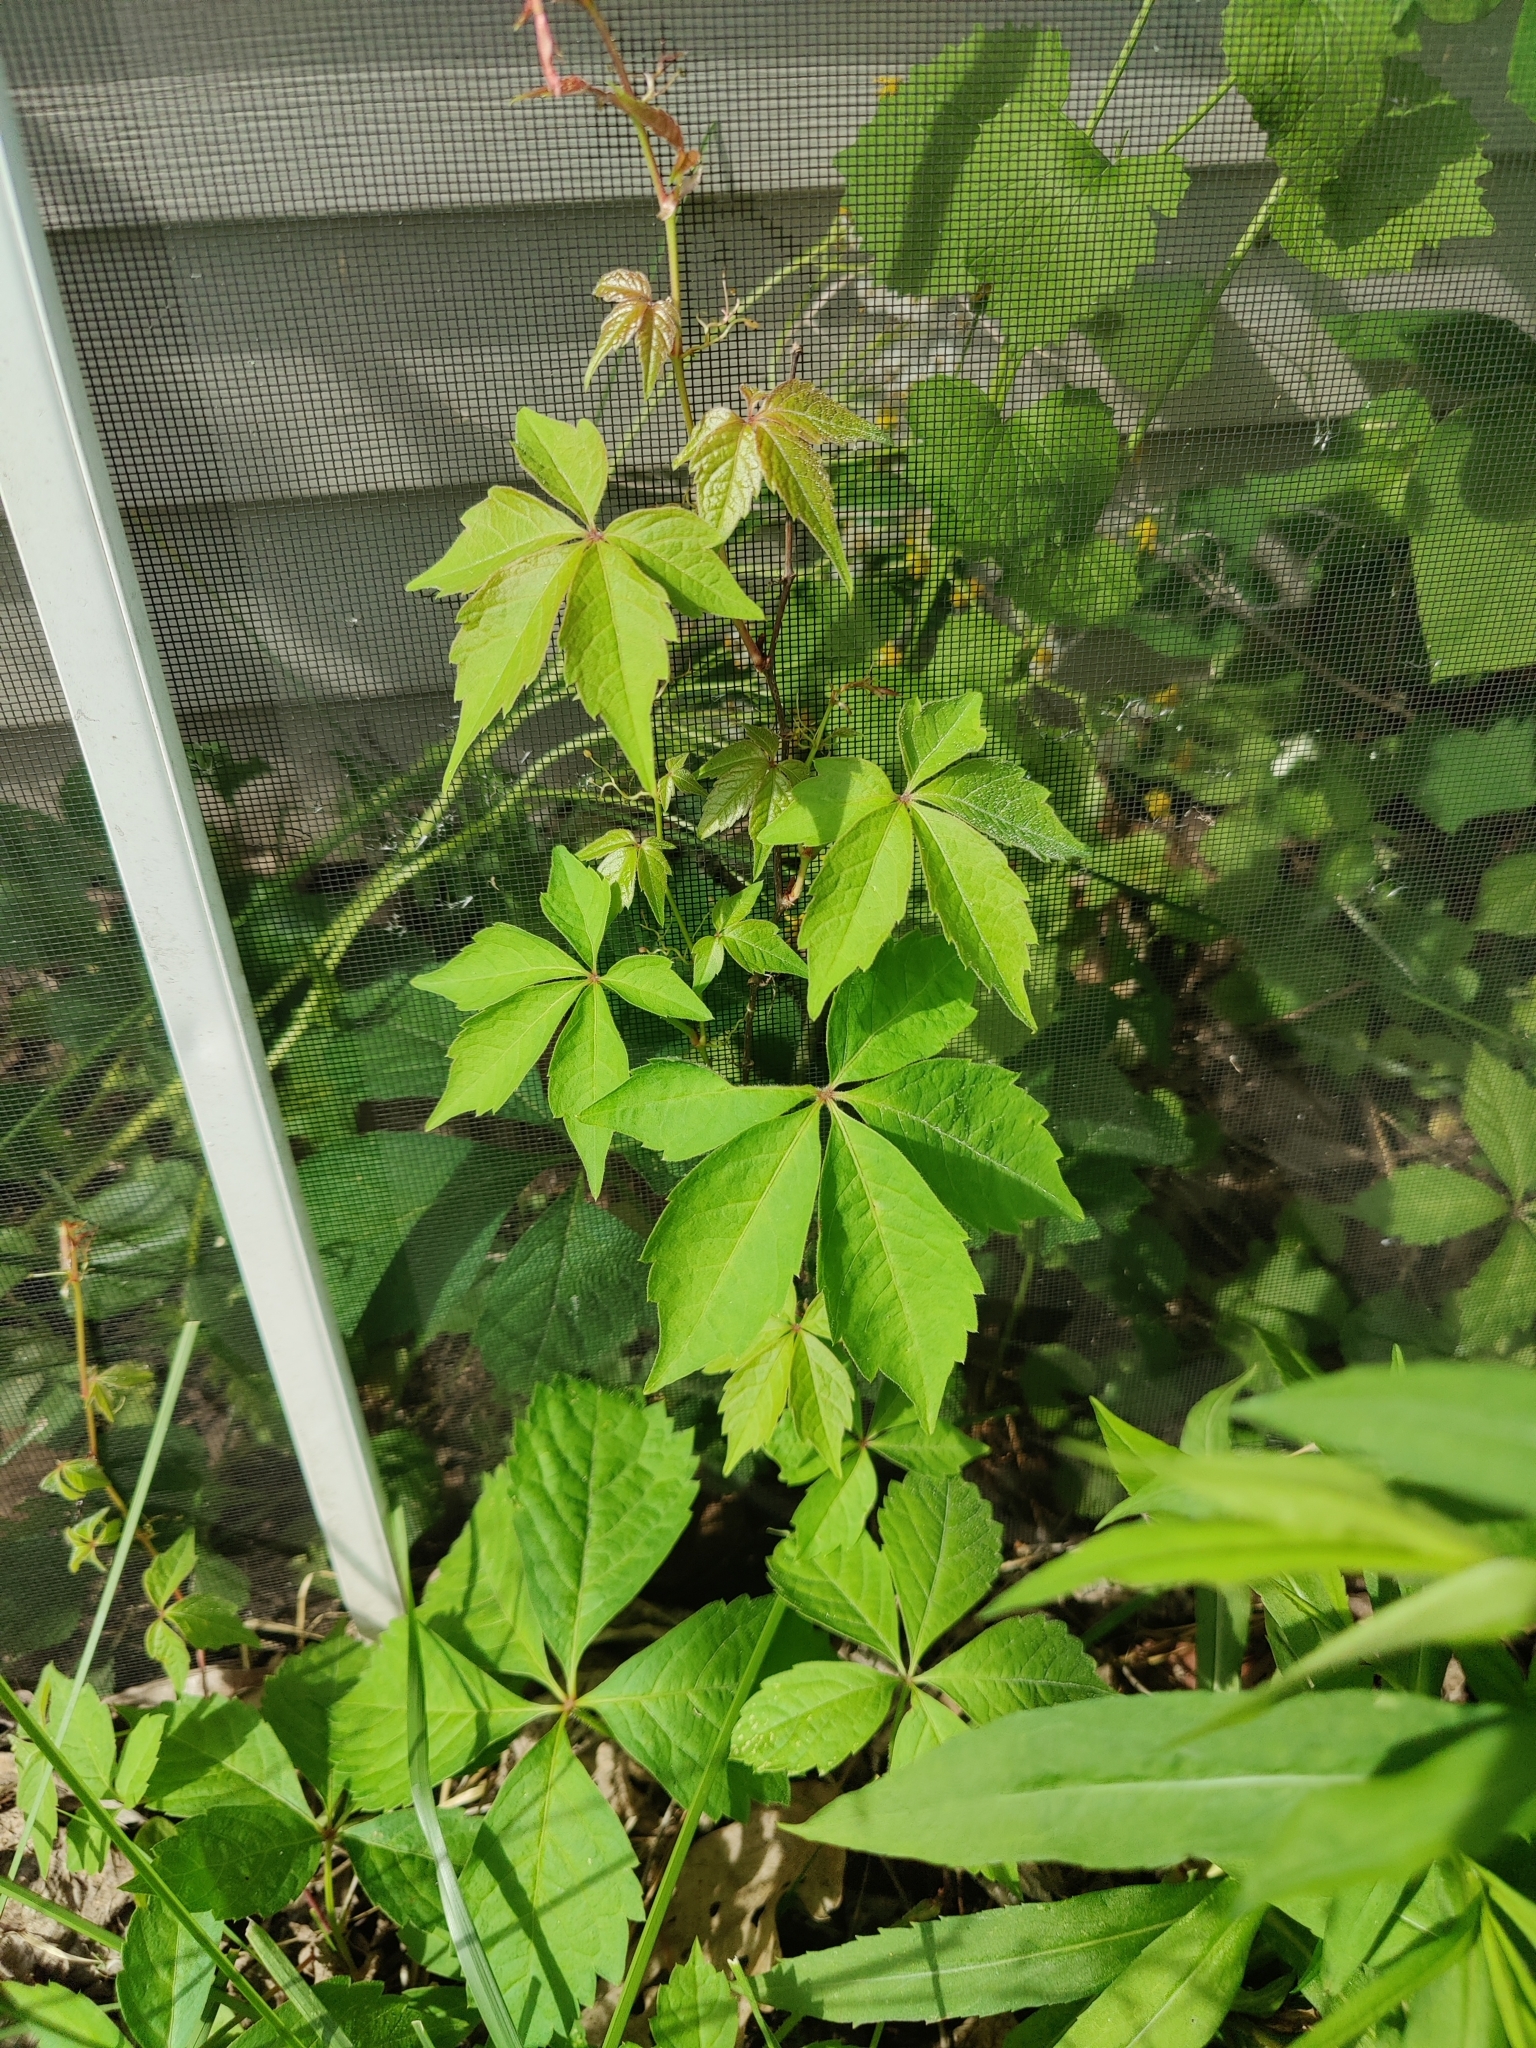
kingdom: Plantae
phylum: Tracheophyta
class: Magnoliopsida
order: Vitales
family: Vitaceae
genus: Parthenocissus
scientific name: Parthenocissus quinquefolia
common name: Virginia-creeper
